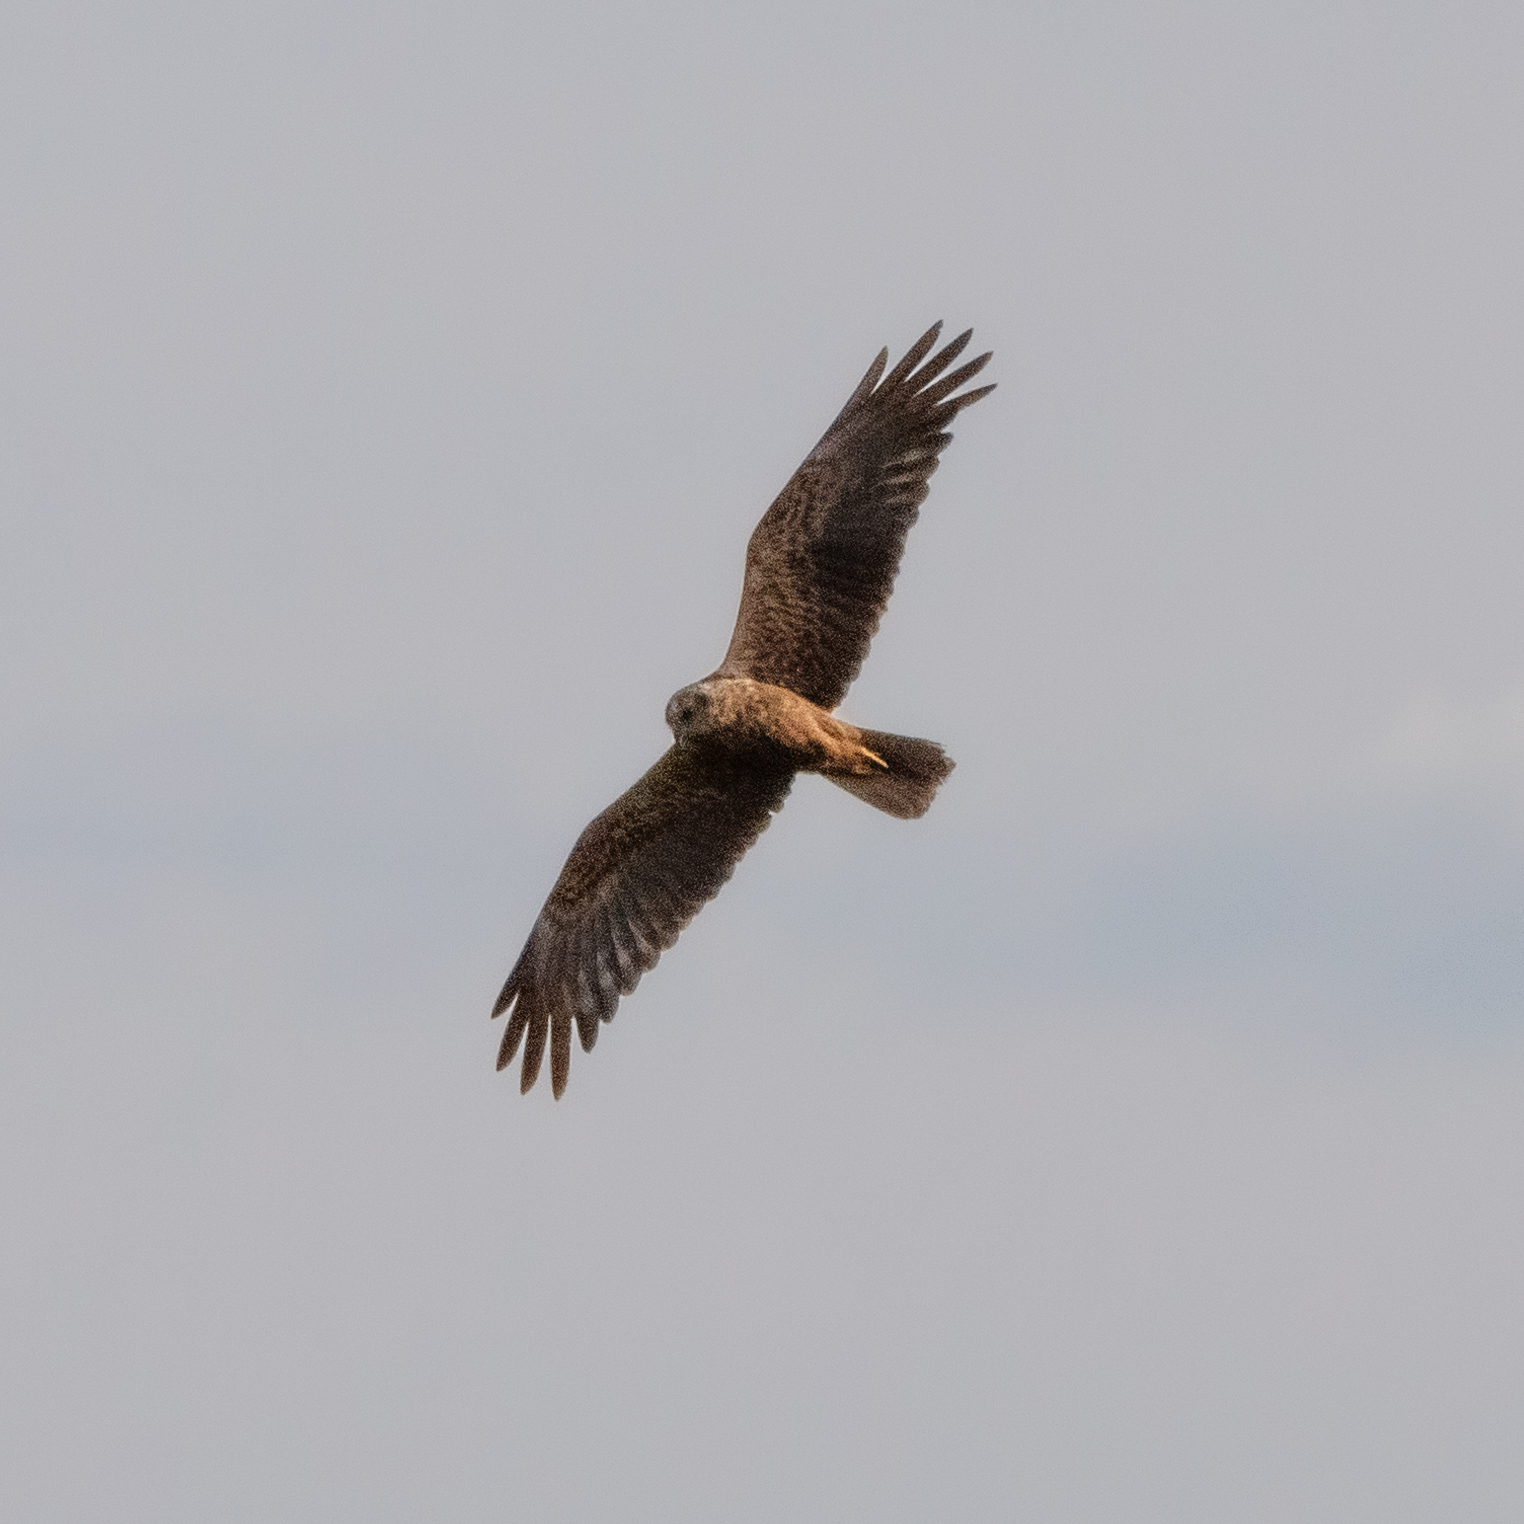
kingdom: Animalia
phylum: Chordata
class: Aves
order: Accipitriformes
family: Accipitridae
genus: Circus
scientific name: Circus aeruginosus
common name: Western marsh harrier
